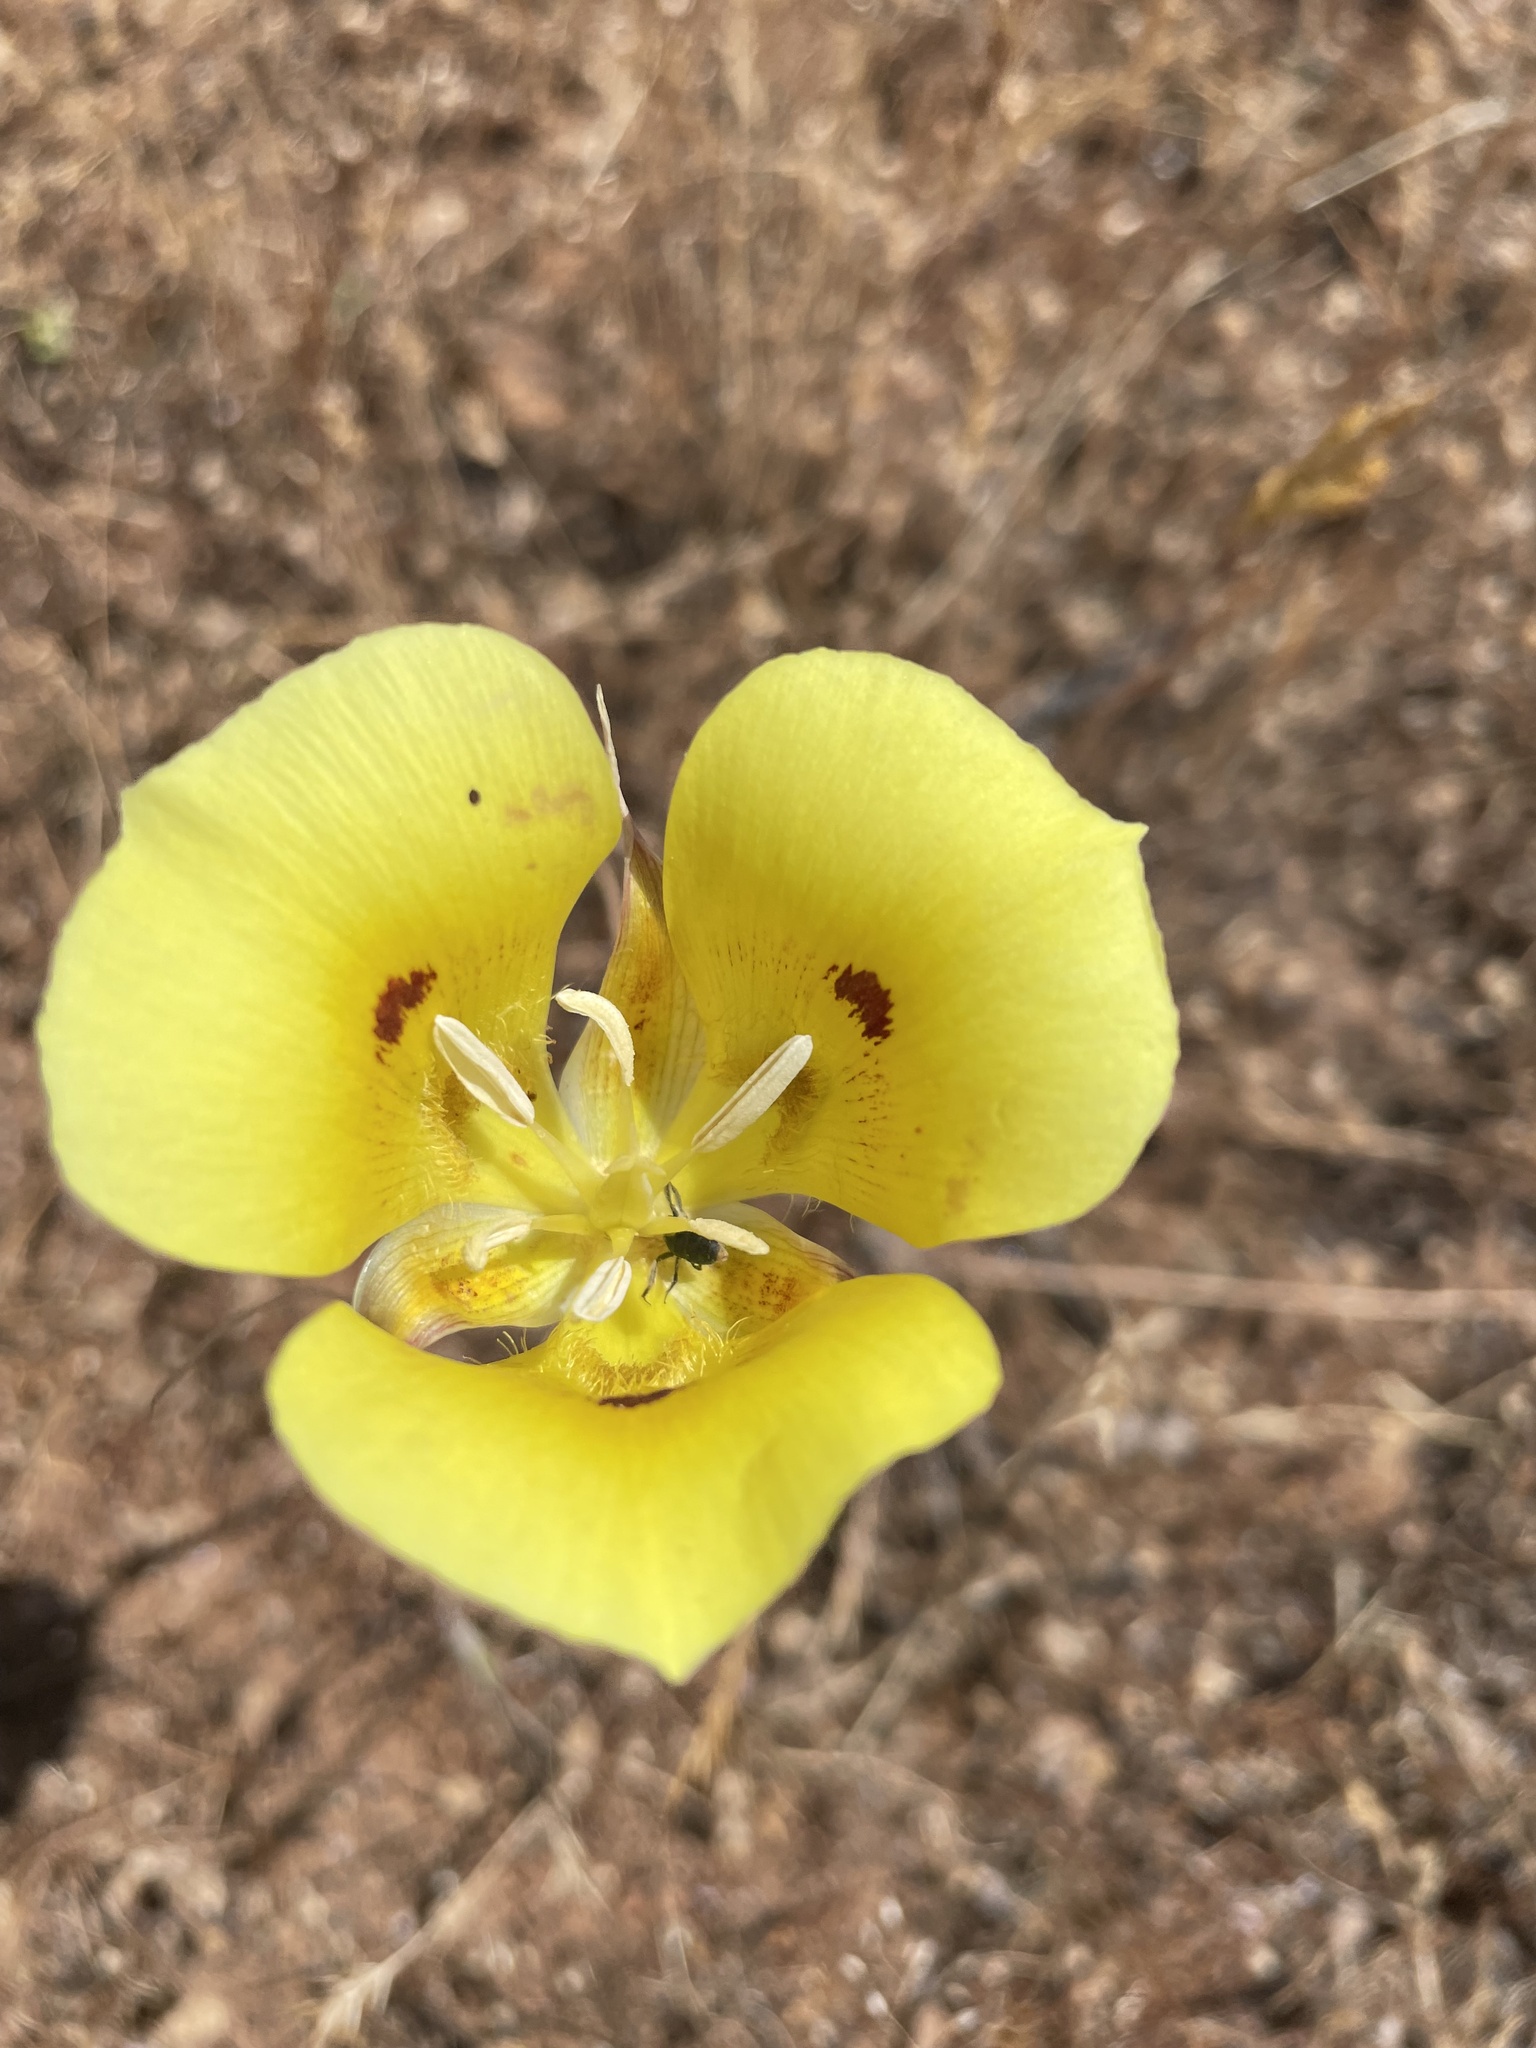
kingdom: Plantae
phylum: Tracheophyta
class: Liliopsida
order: Liliales
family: Liliaceae
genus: Calochortus
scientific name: Calochortus luteus
